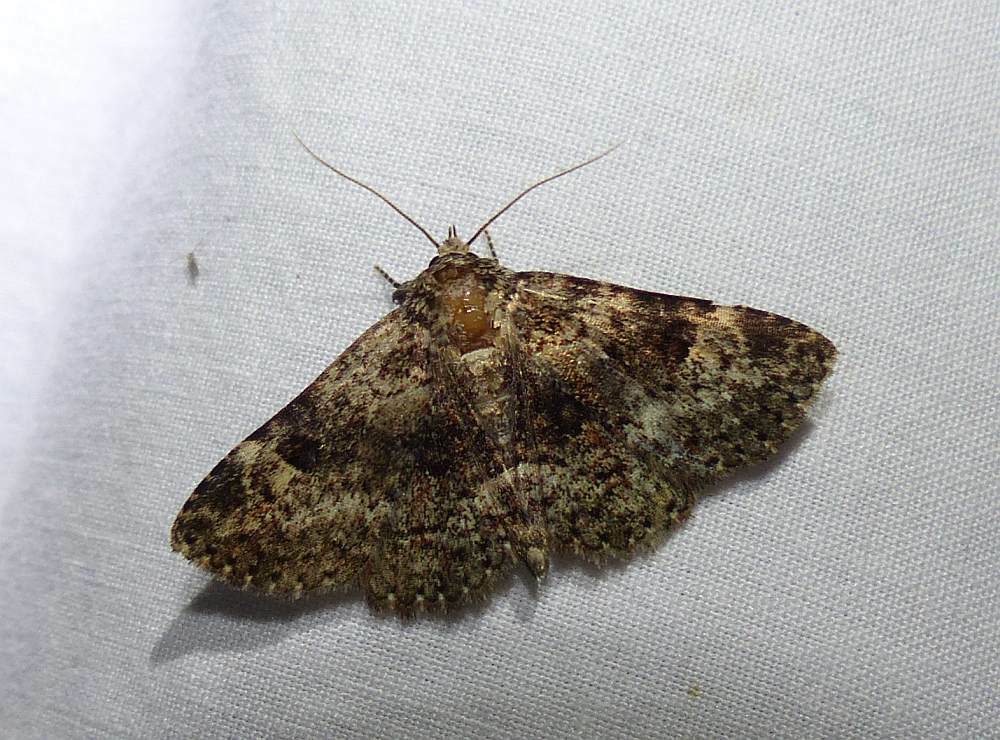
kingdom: Animalia
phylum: Arthropoda
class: Insecta
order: Lepidoptera
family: Erebidae
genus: Metalectra
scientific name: Metalectra discalis
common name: Common fungus moth
